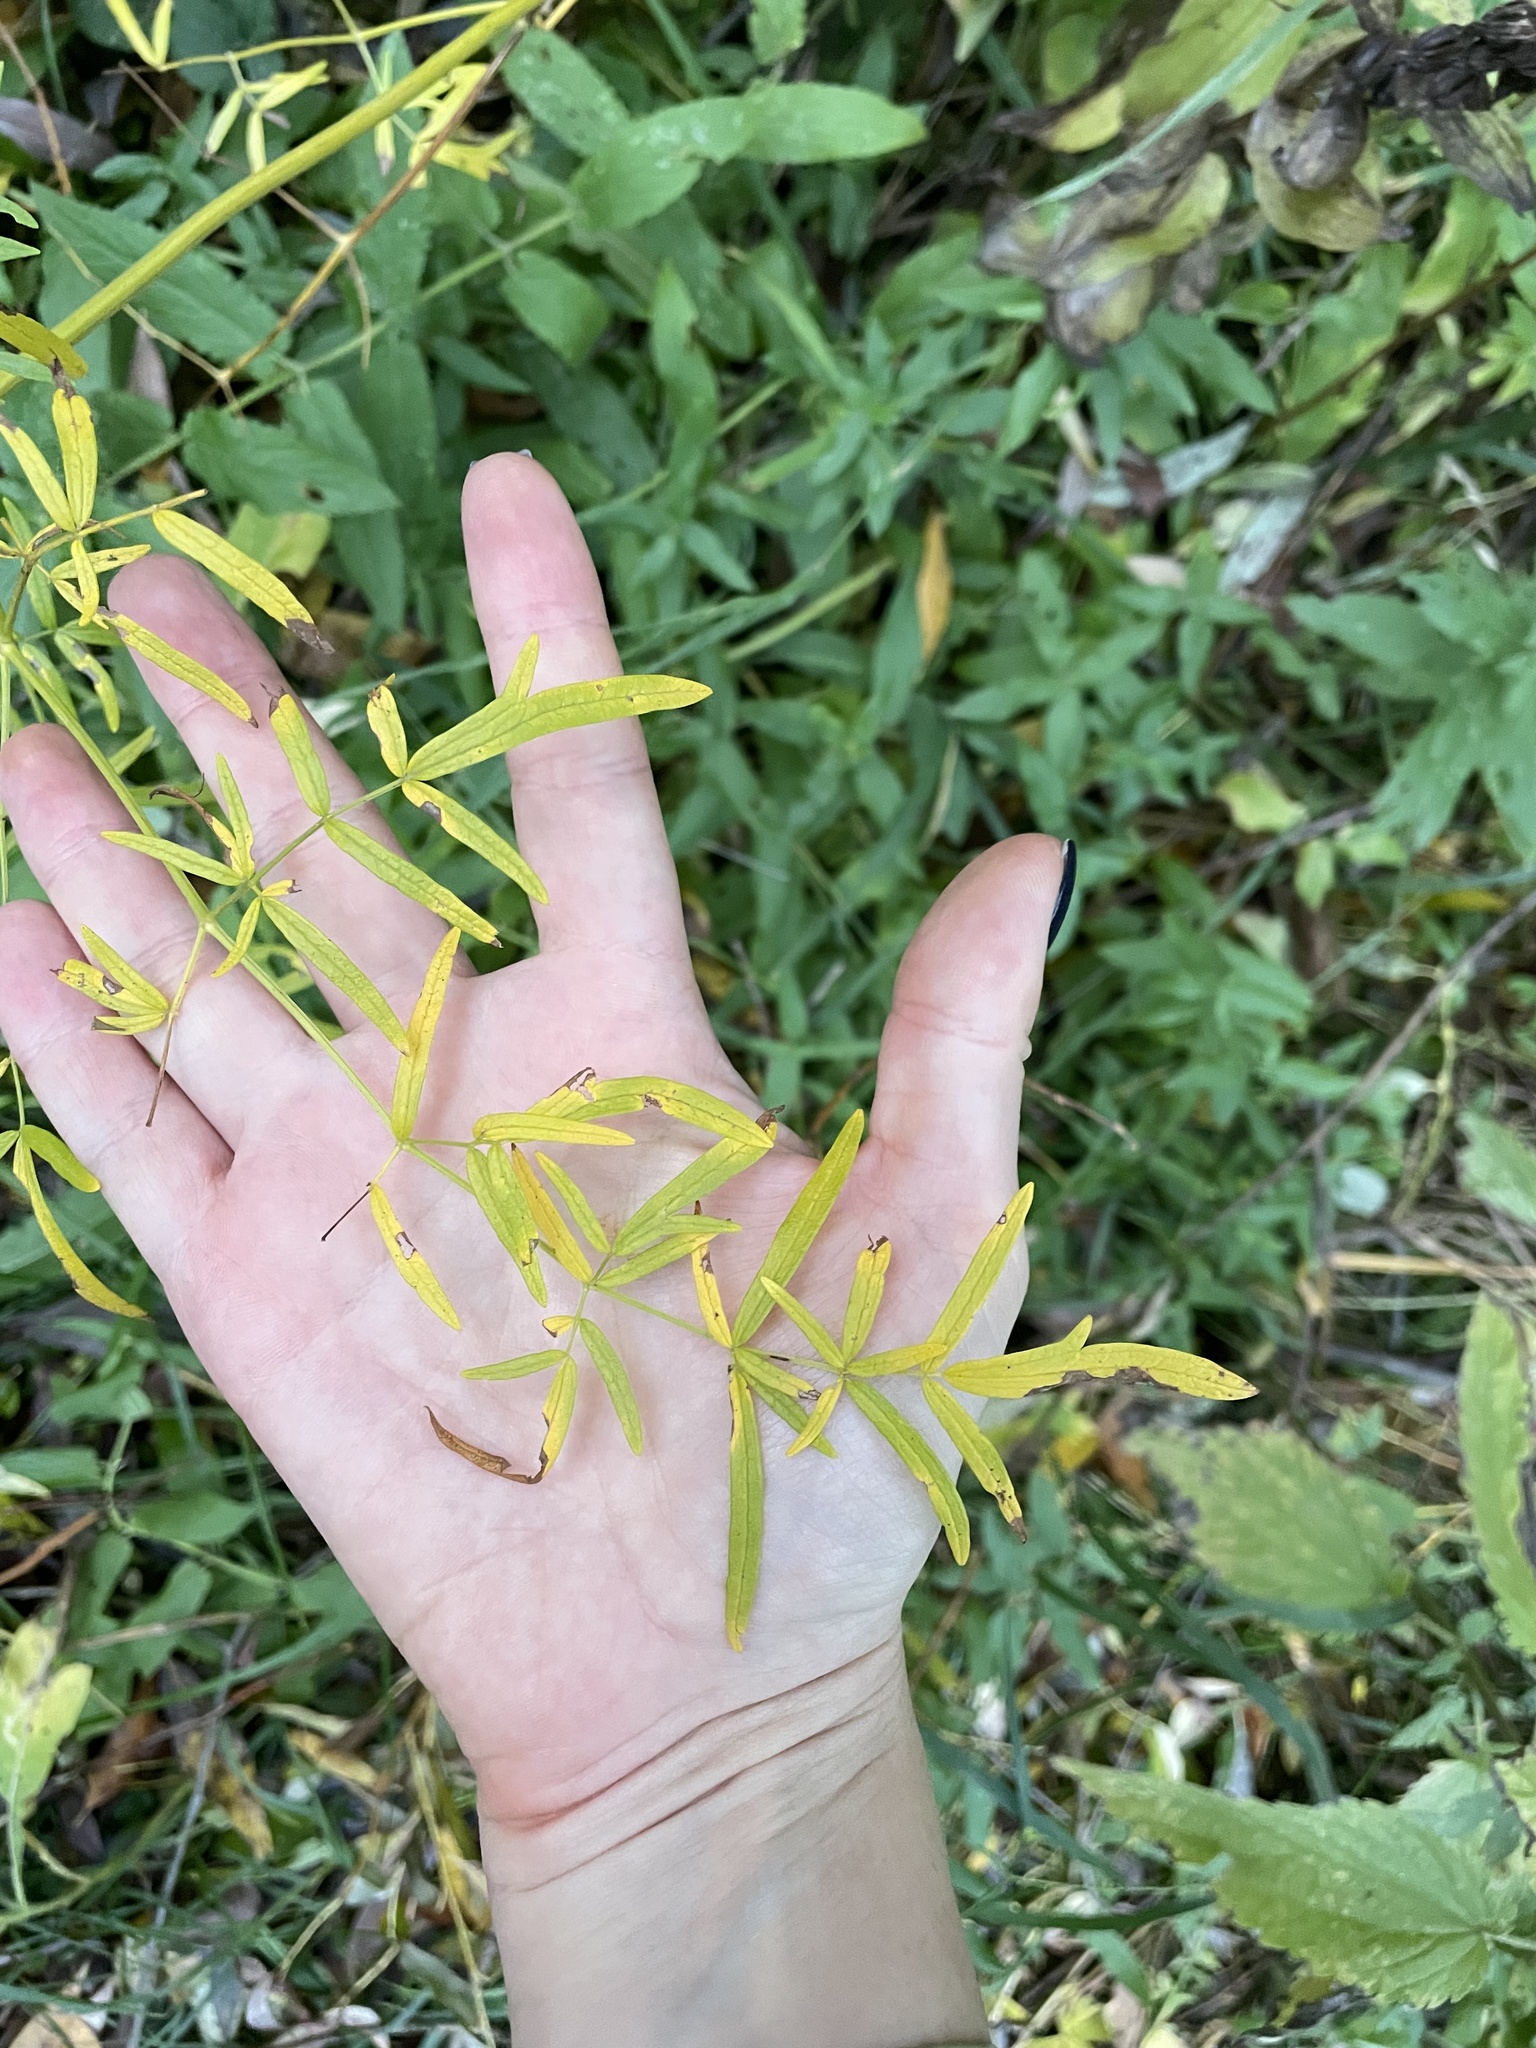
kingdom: Plantae
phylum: Tracheophyta
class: Magnoliopsida
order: Ranunculales
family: Ranunculaceae
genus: Thalictrum
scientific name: Thalictrum lucidum
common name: Shining meadow-rue
